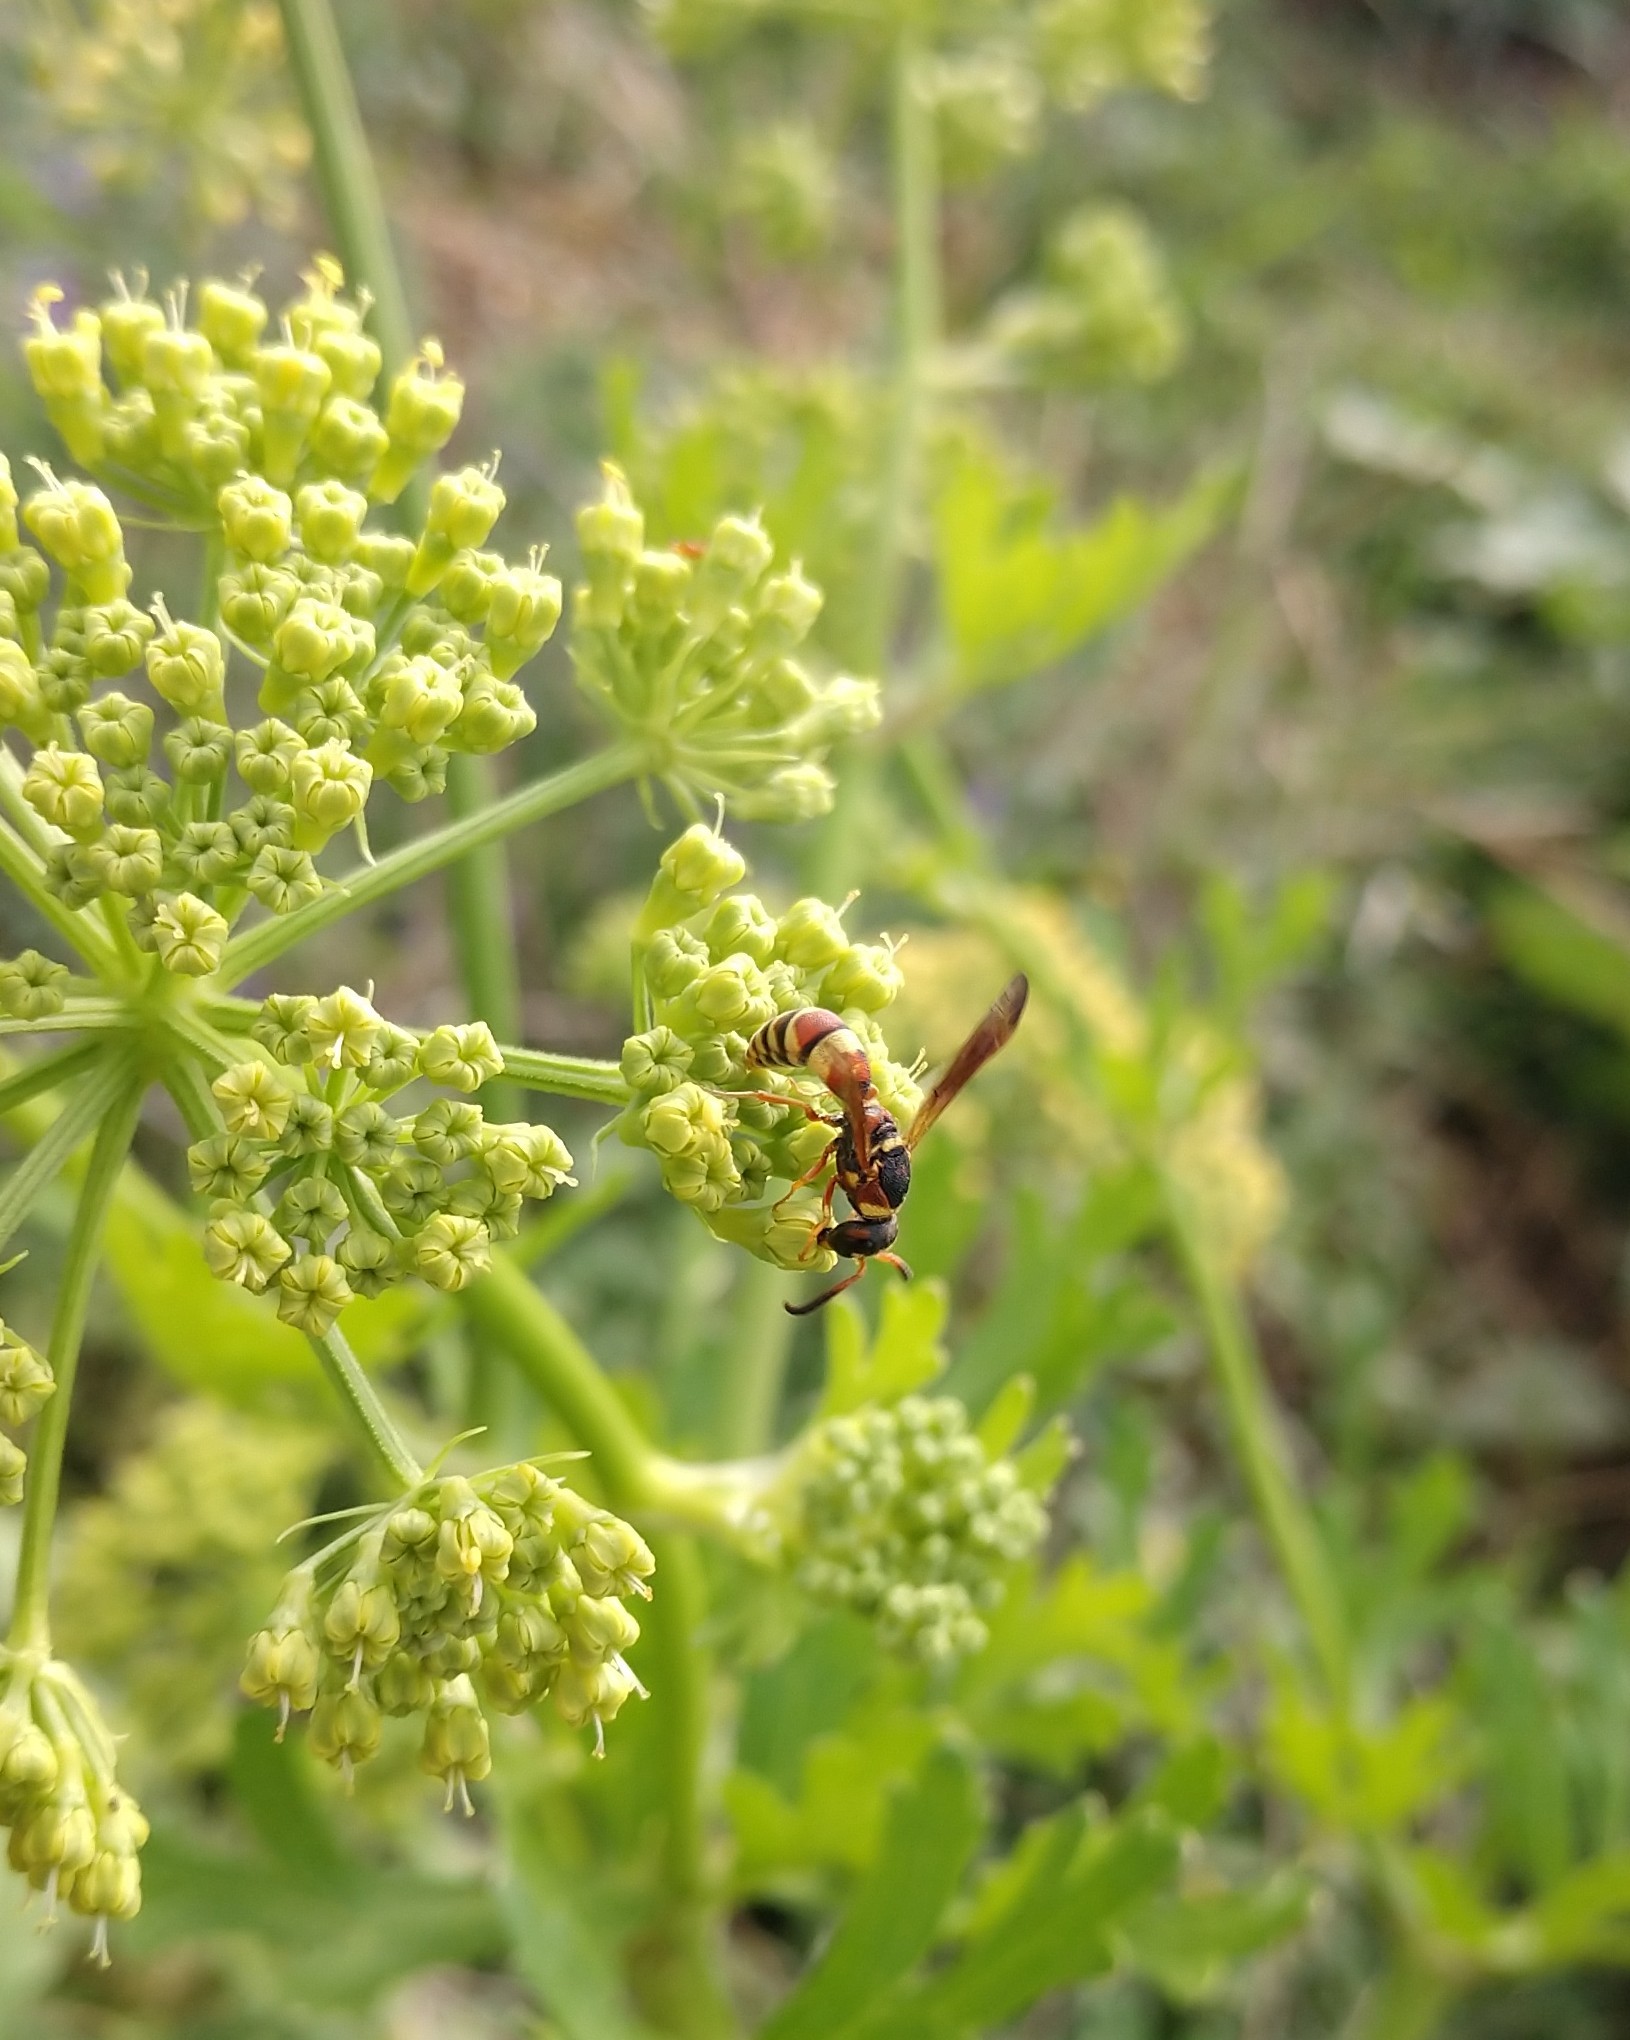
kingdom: Animalia
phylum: Arthropoda
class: Insecta
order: Hymenoptera
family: Eumenidae
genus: Dolichodynerus
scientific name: Dolichodynerus tanynotus
